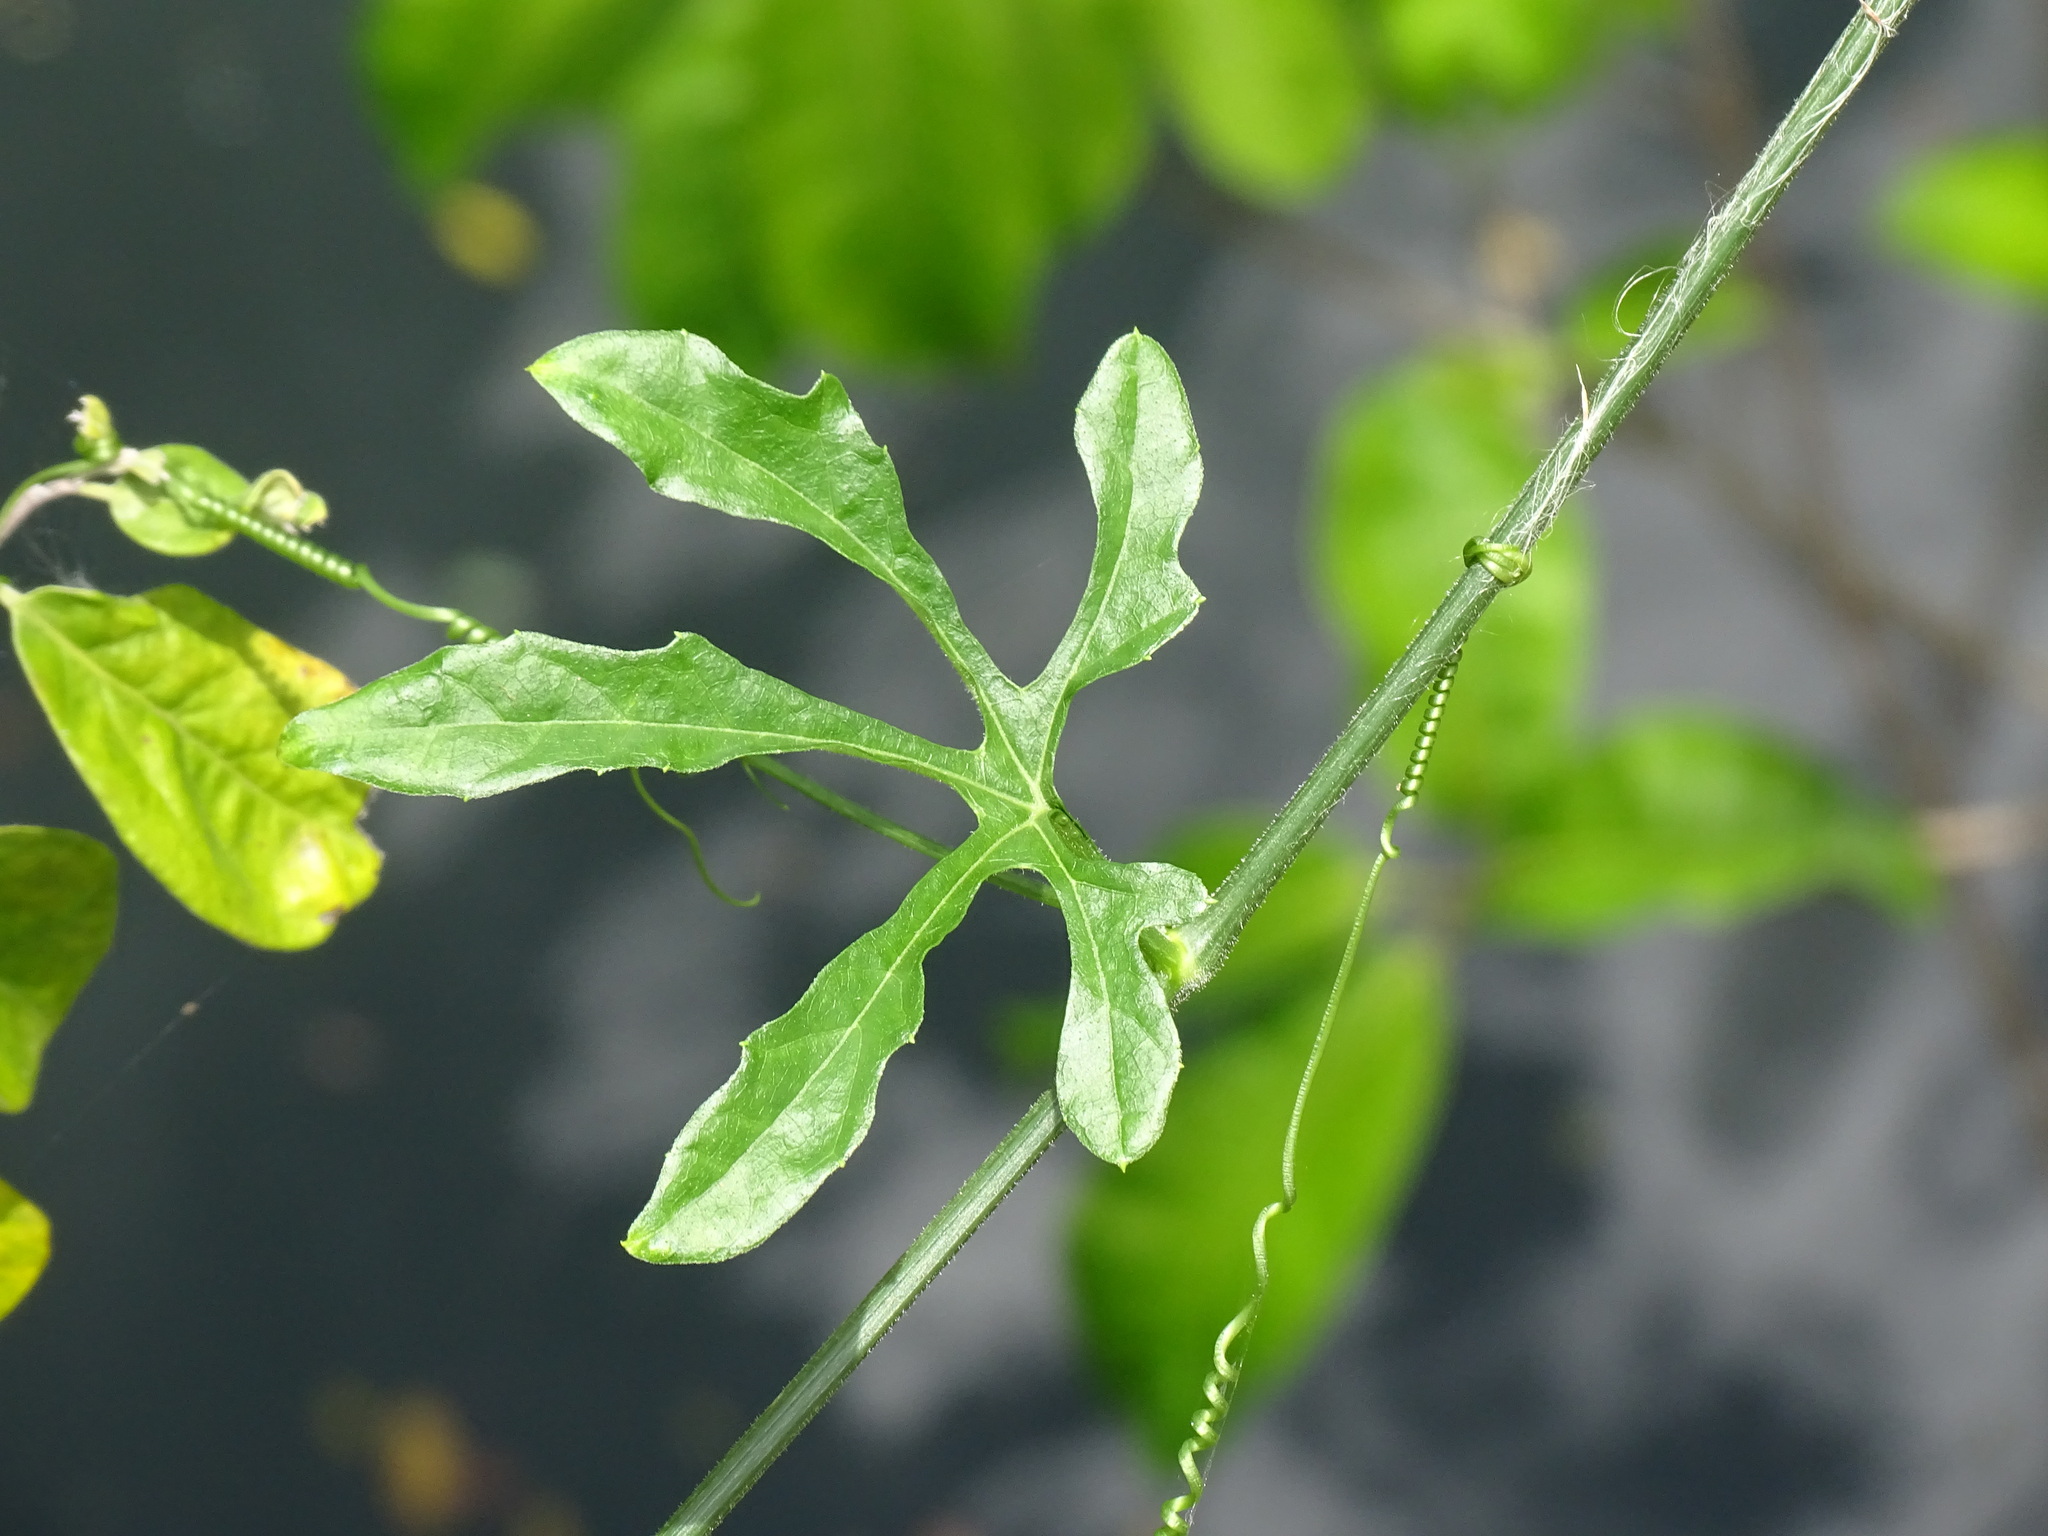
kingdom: Plantae
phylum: Tracheophyta
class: Magnoliopsida
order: Cucurbitales
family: Cucurbitaceae
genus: Cionosicys
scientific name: Cionosicys excisus
